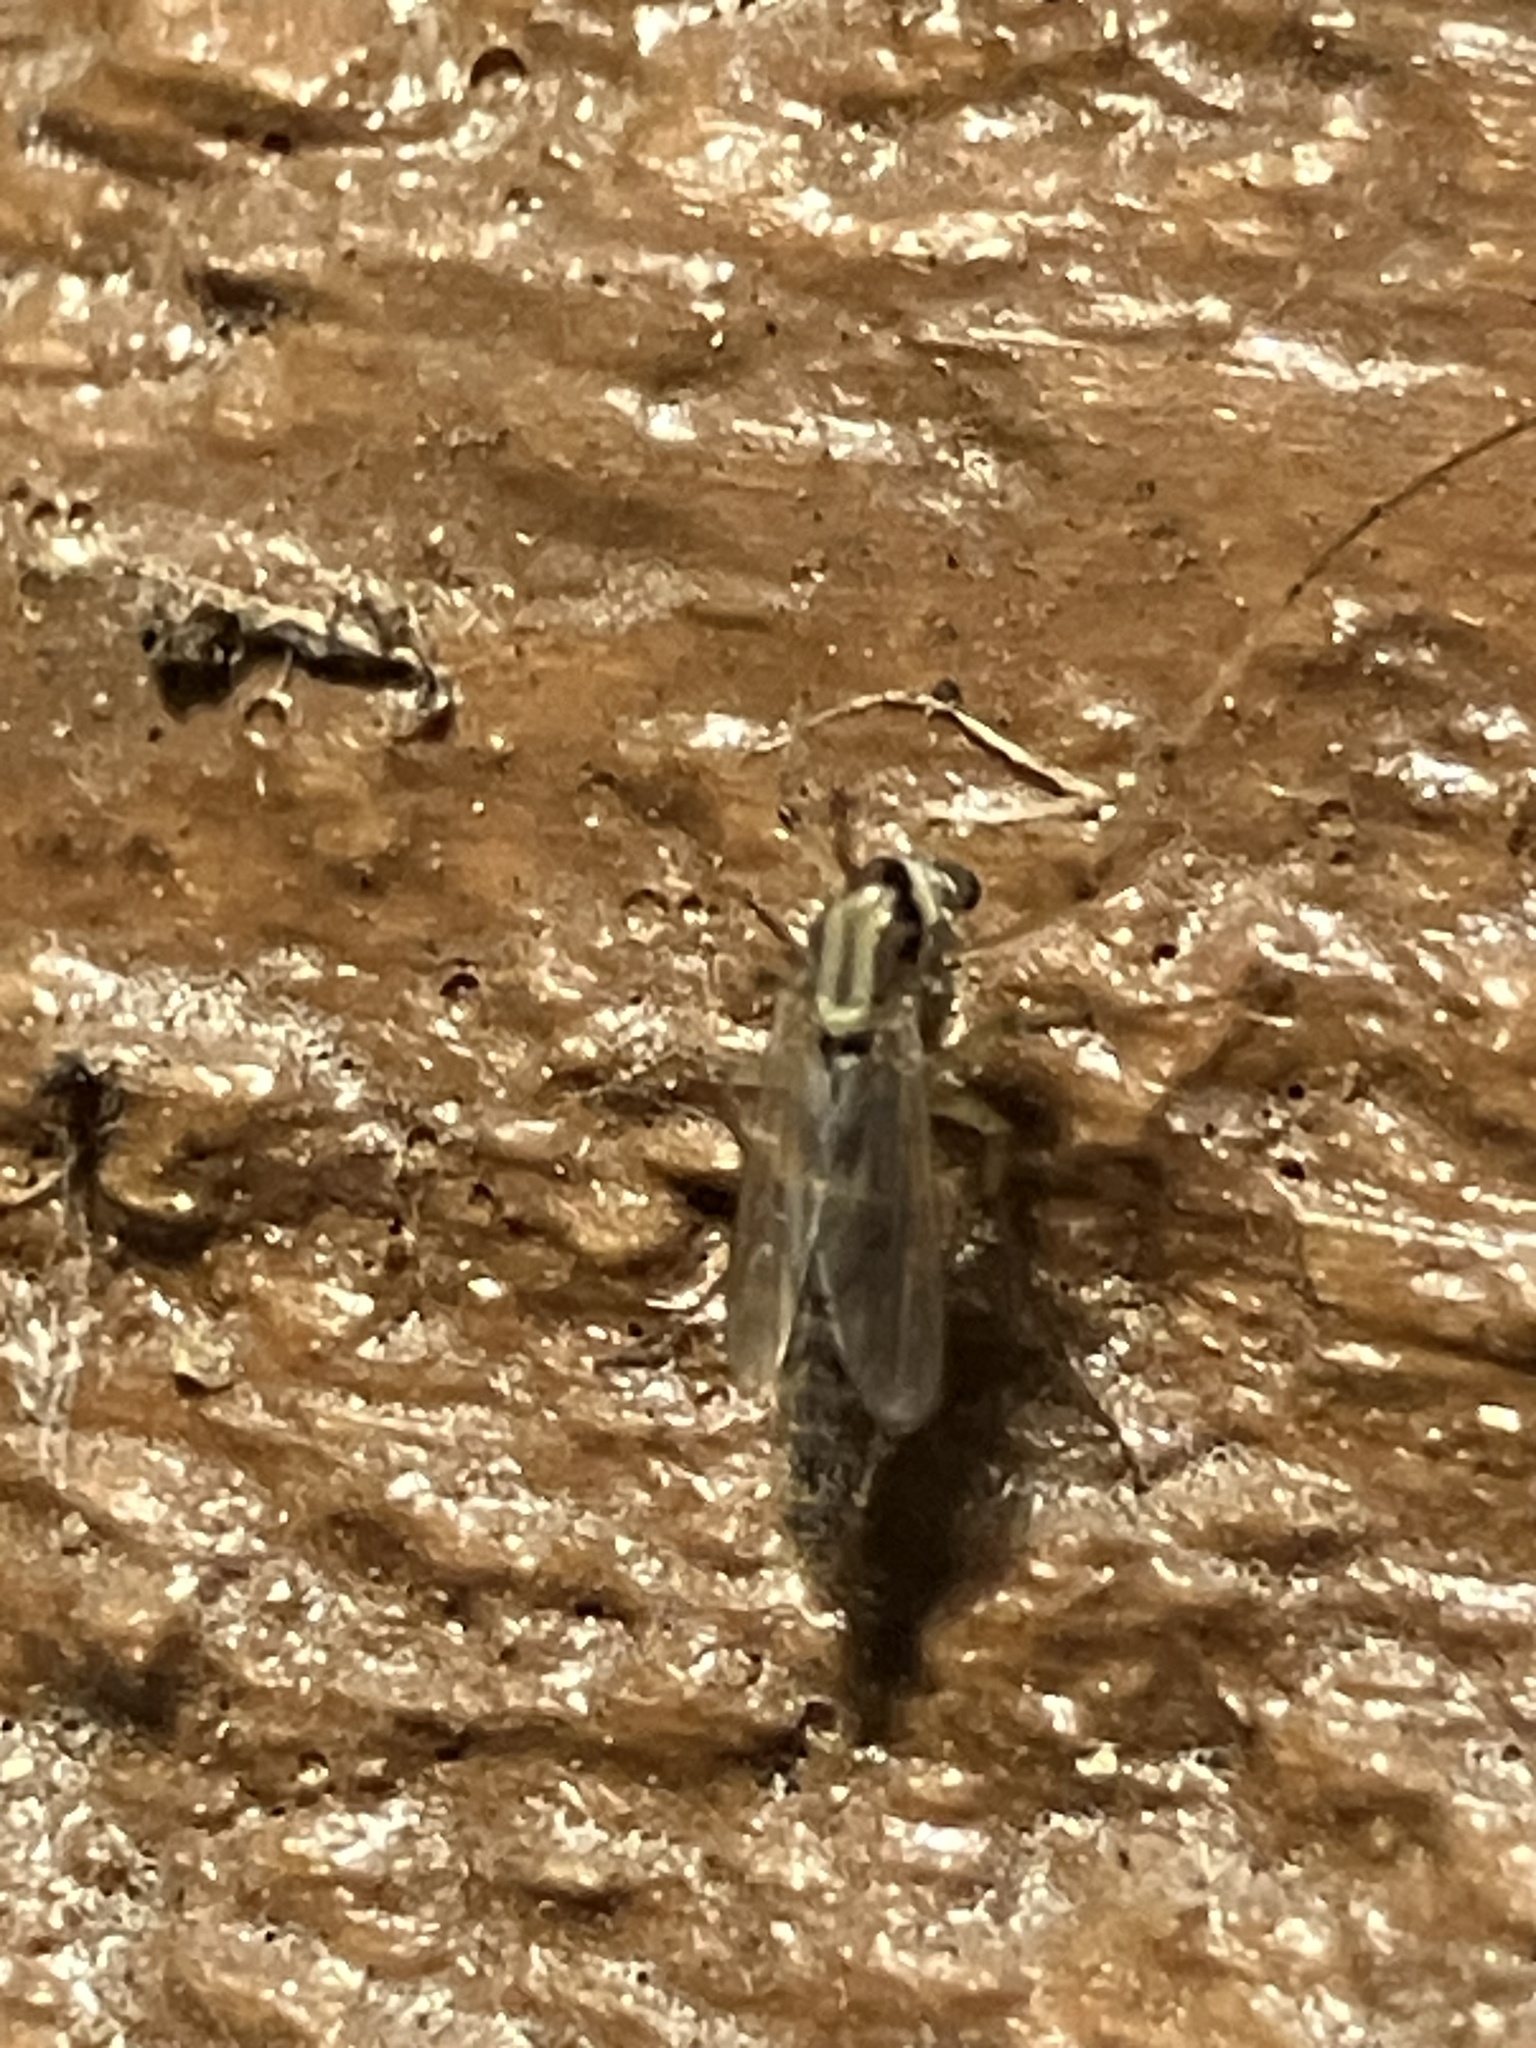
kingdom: Animalia
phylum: Arthropoda
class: Insecta
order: Diptera
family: Chironomidae
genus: Goeldichironomus
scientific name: Goeldichironomus carus
